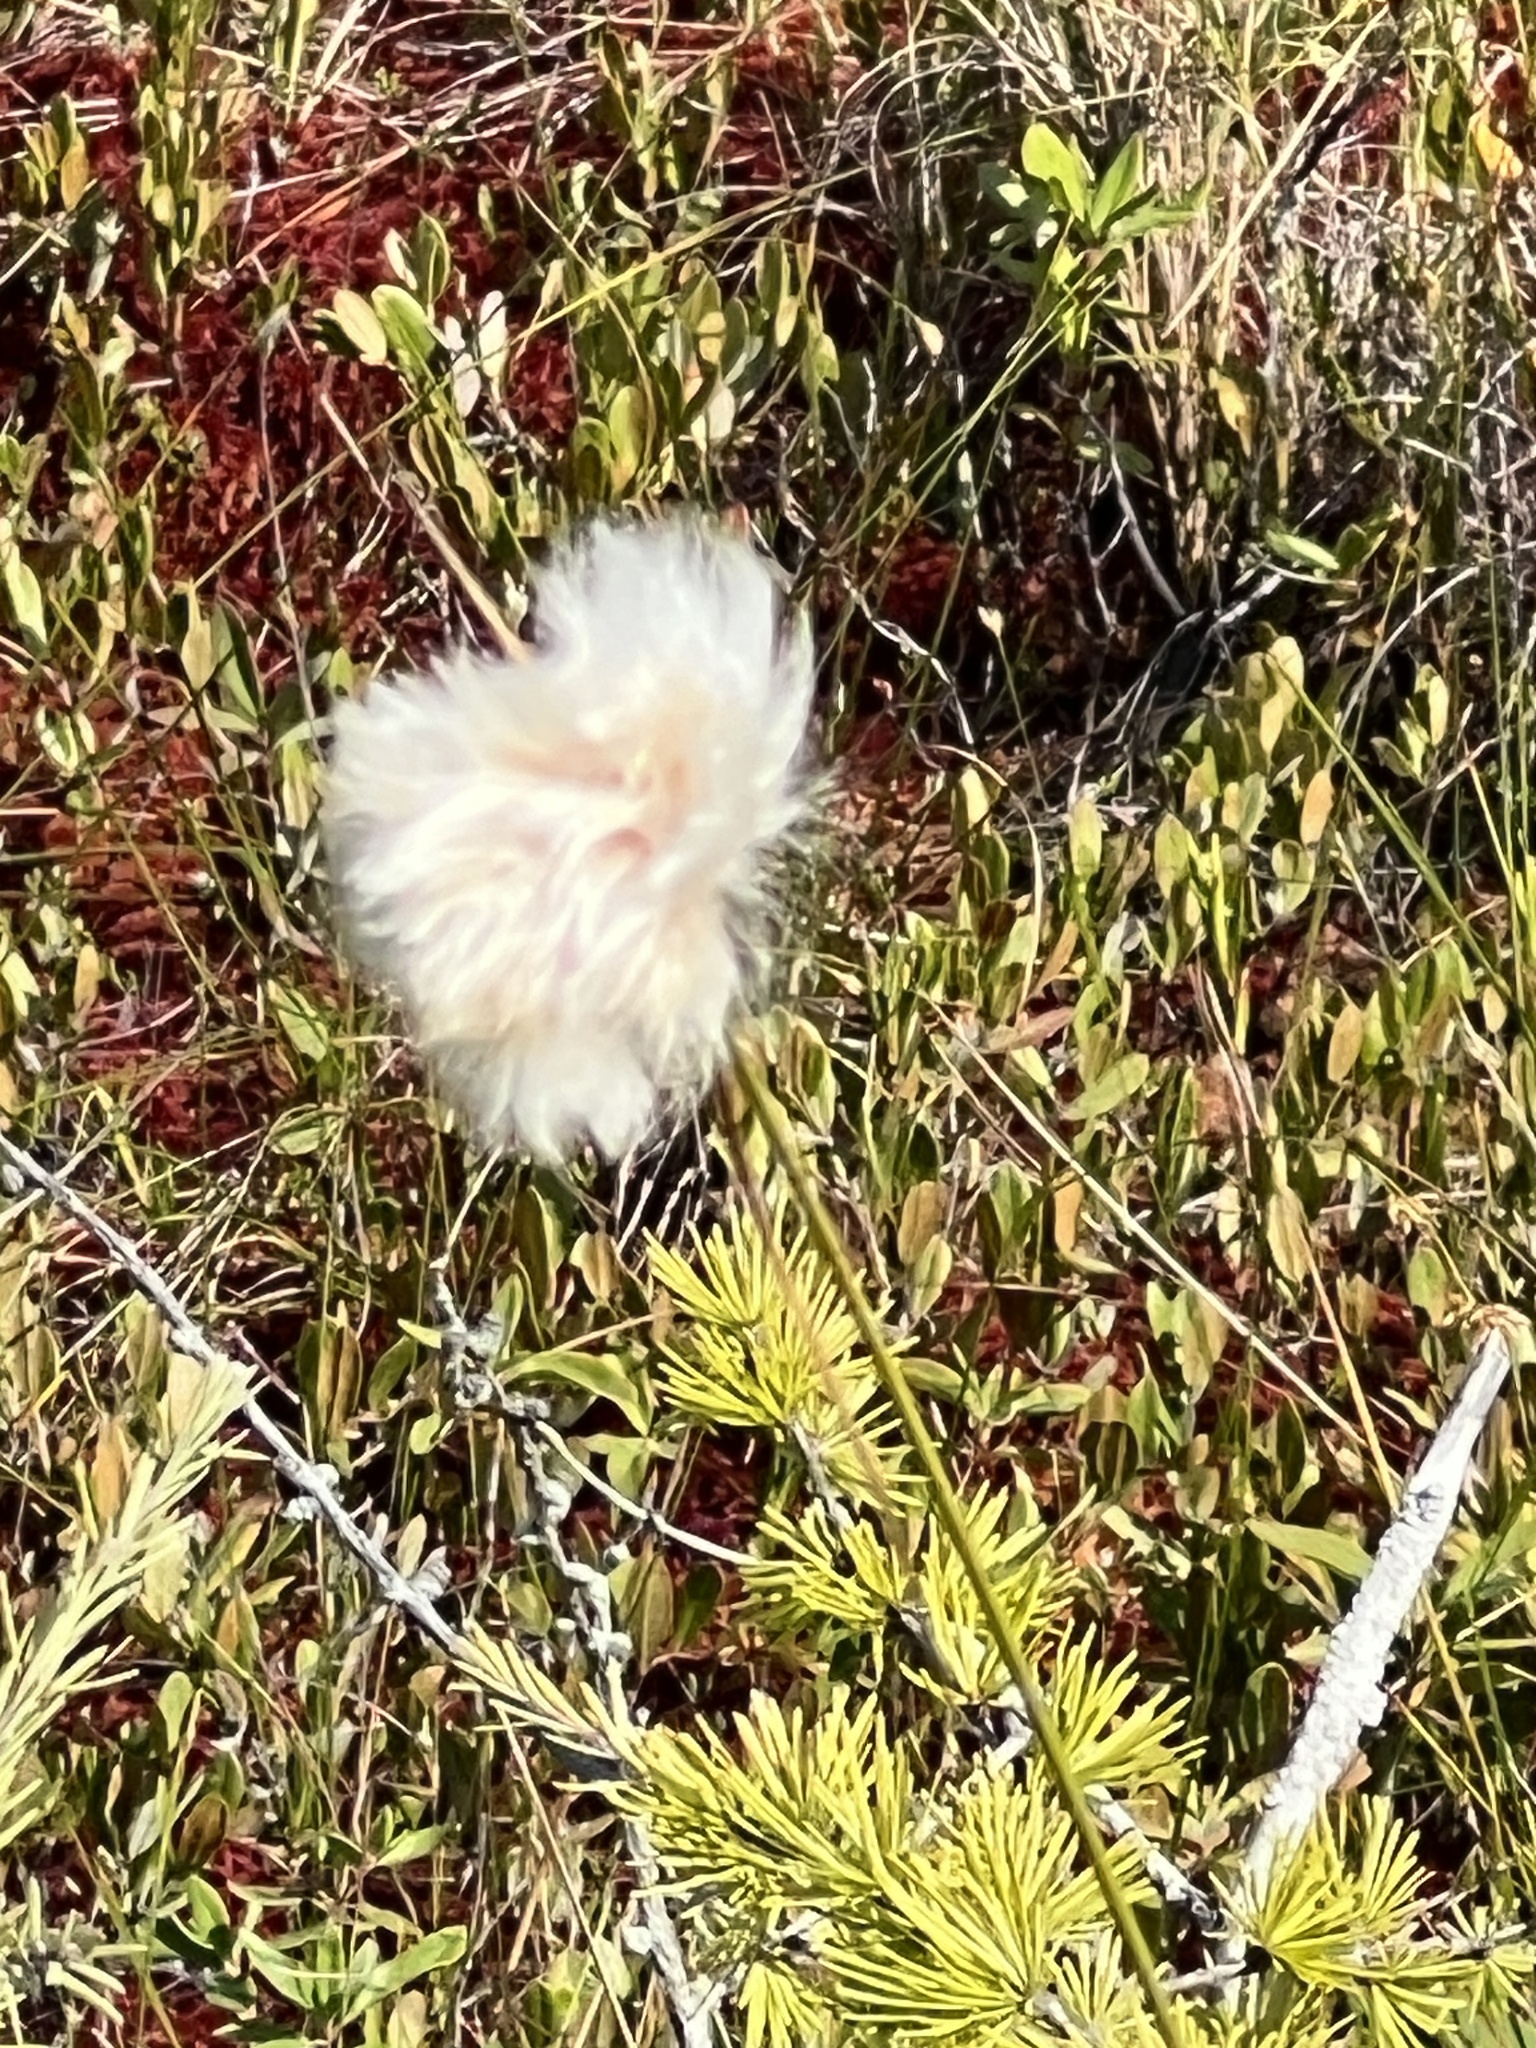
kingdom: Plantae
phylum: Tracheophyta
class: Liliopsida
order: Poales
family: Cyperaceae
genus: Eriophorum
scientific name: Eriophorum vaginatum
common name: Hare's-tail cottongrass
